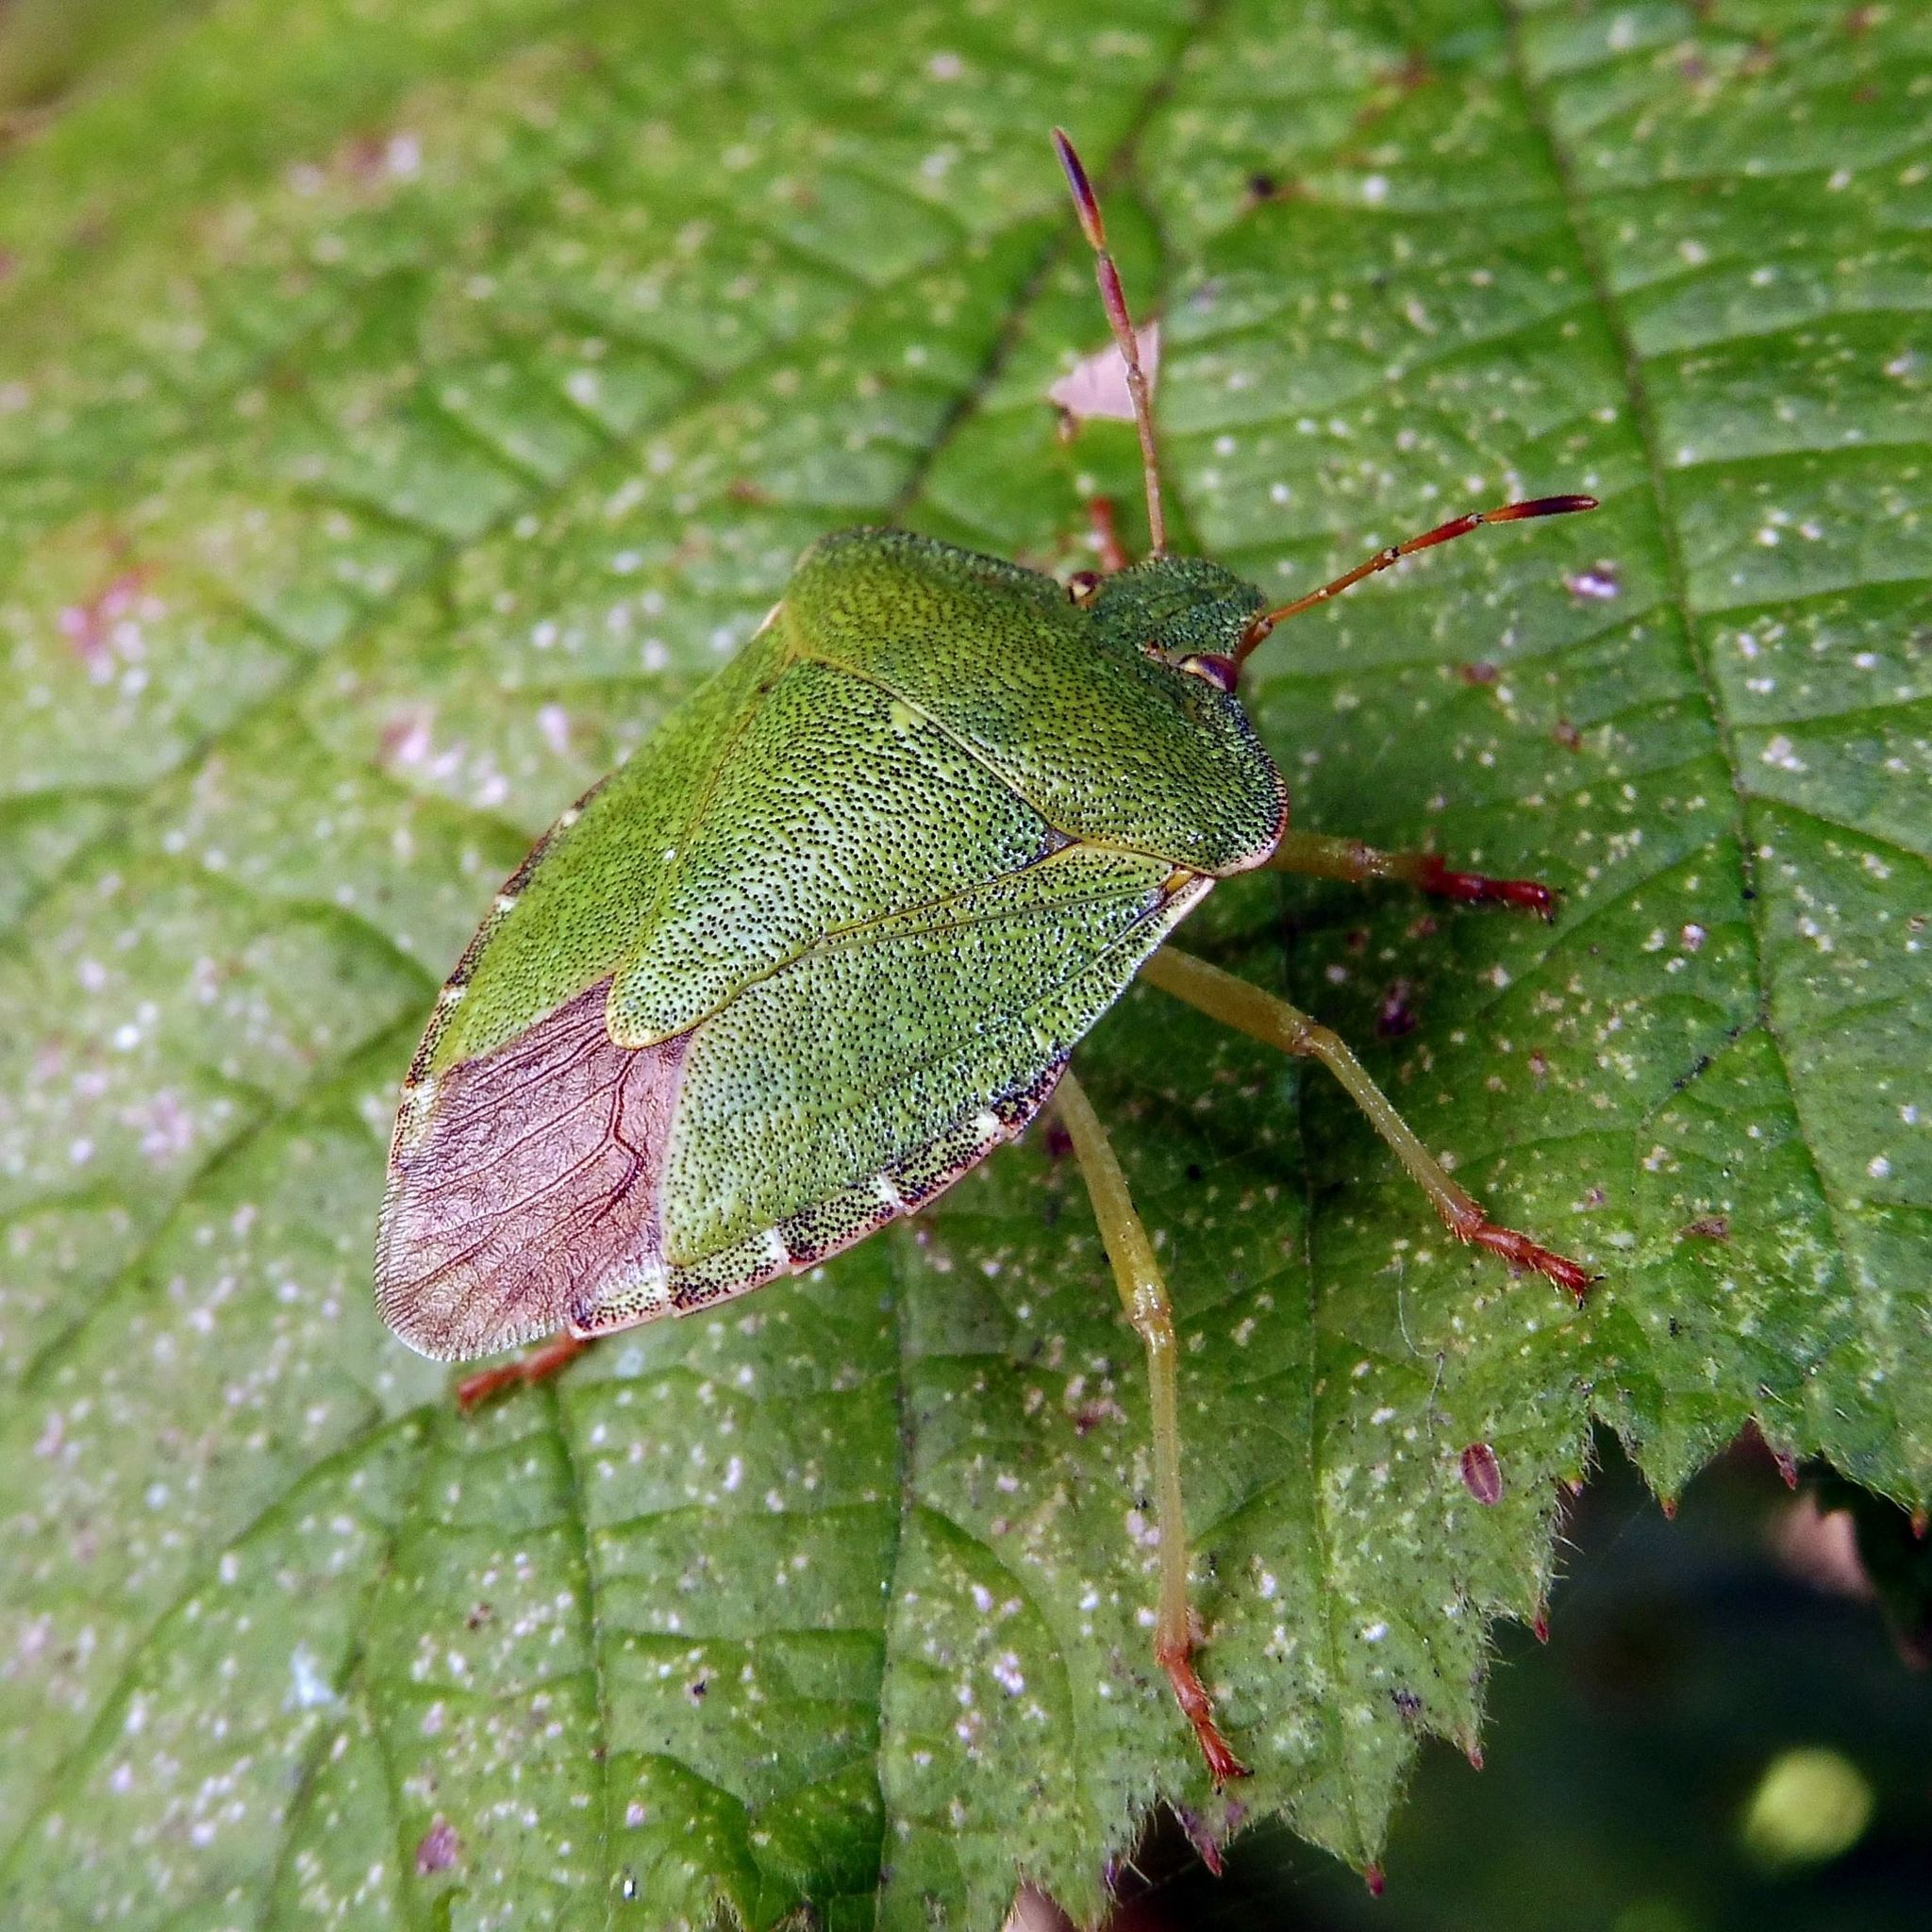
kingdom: Animalia
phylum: Arthropoda
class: Insecta
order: Hemiptera
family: Pentatomidae
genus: Palomena
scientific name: Palomena prasina
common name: Green shieldbug
